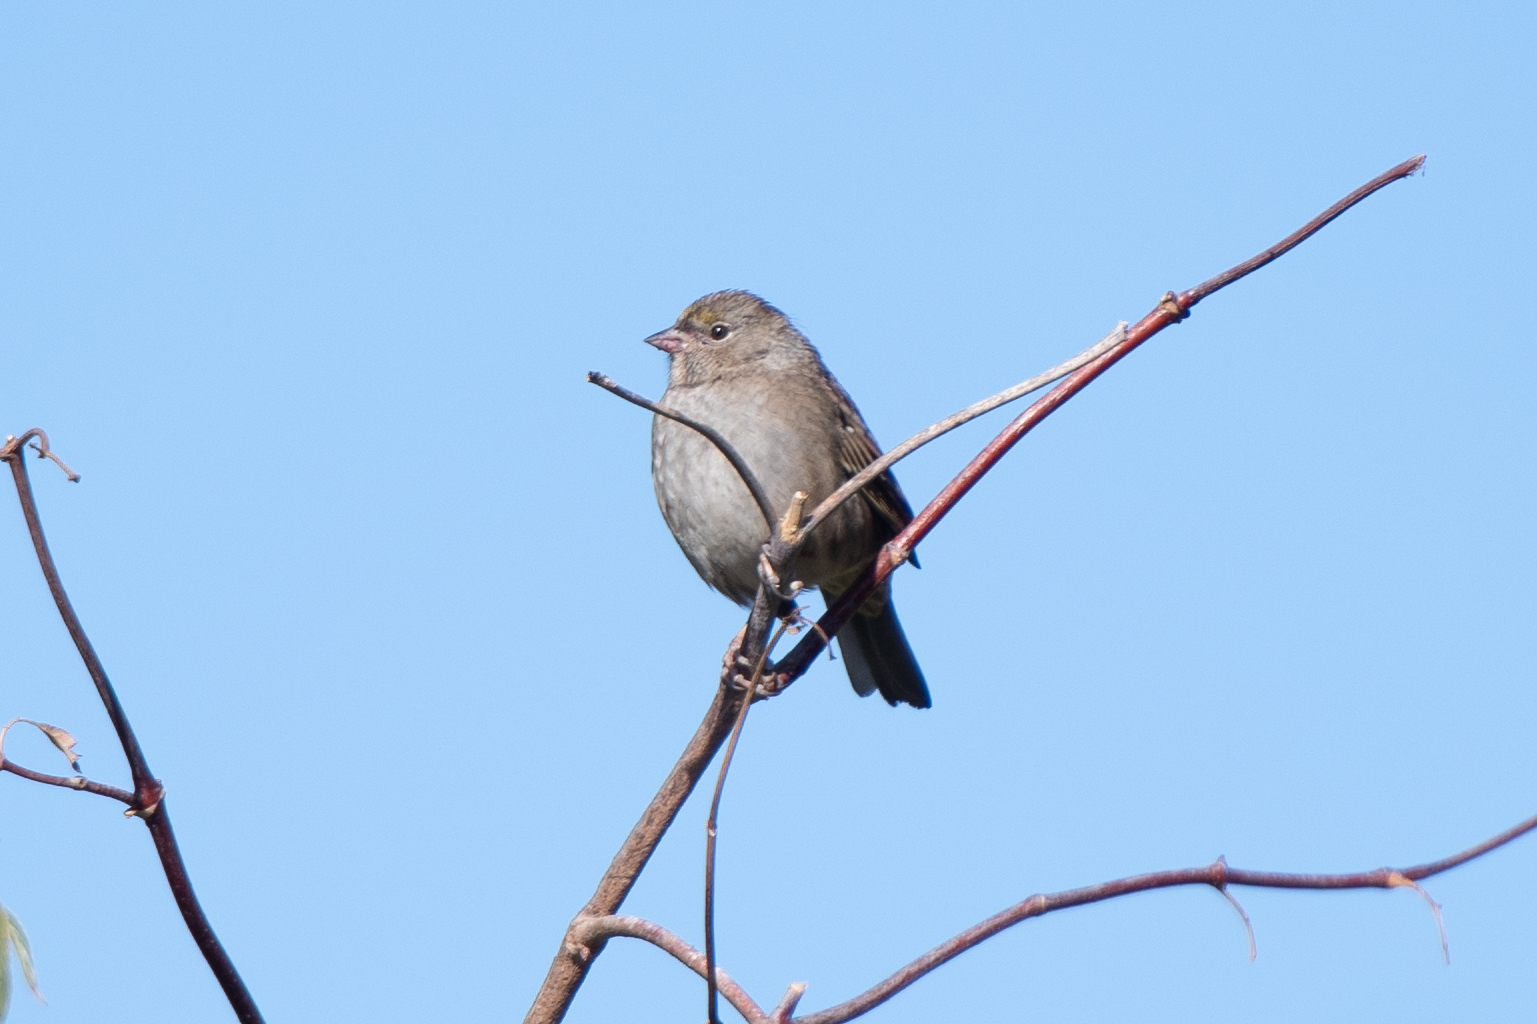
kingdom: Animalia
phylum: Chordata
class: Aves
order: Passeriformes
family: Passerellidae
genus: Zonotrichia
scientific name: Zonotrichia atricapilla
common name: Golden-crowned sparrow
